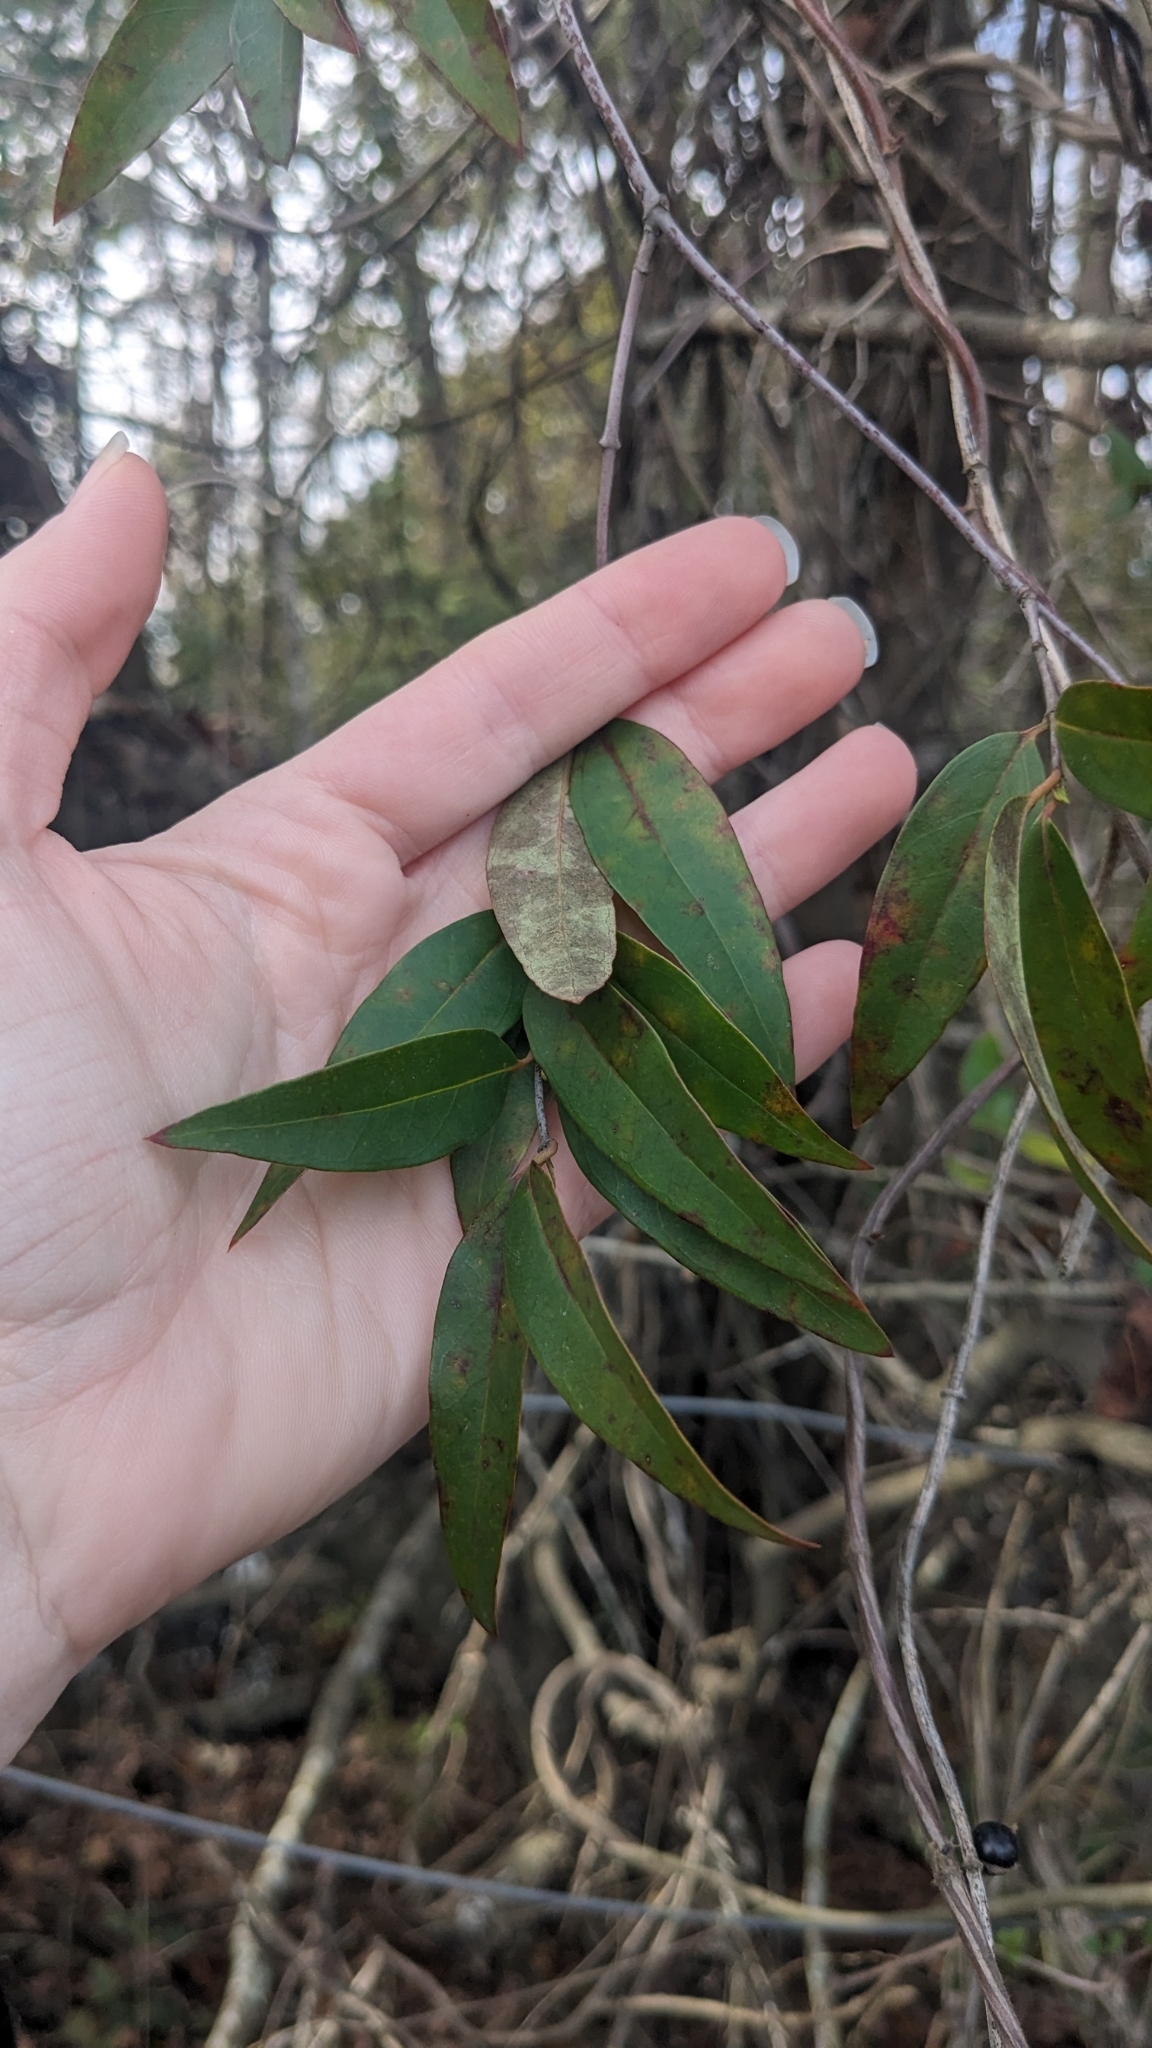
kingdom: Plantae
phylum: Tracheophyta
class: Magnoliopsida
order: Gentianales
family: Gelsemiaceae
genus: Gelsemium
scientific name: Gelsemium sempervirens
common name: Carolina-jasmine
